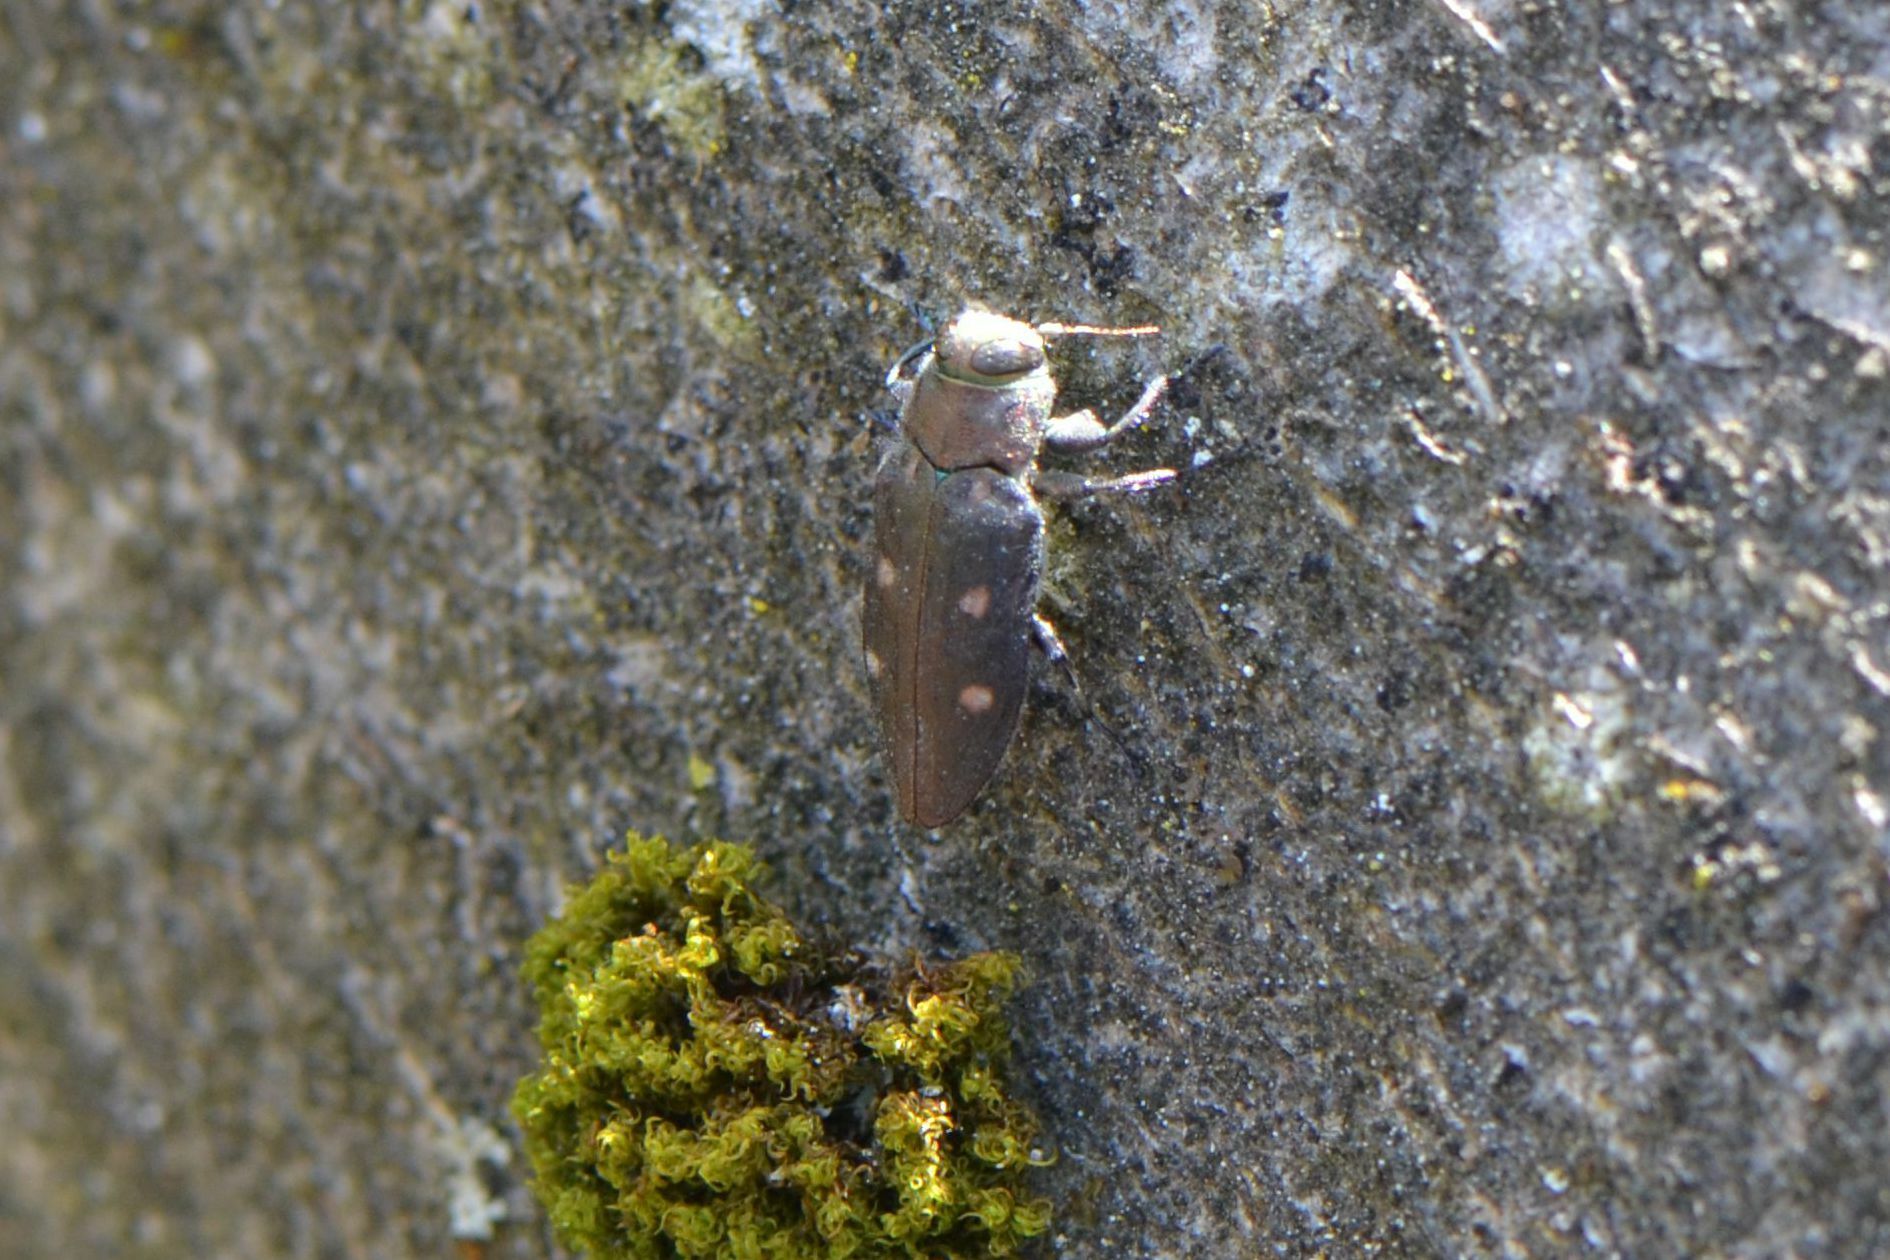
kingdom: Animalia
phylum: Arthropoda
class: Insecta
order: Coleoptera
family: Buprestidae
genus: Chrysobothris
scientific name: Chrysobothris affinis
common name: Beetle
